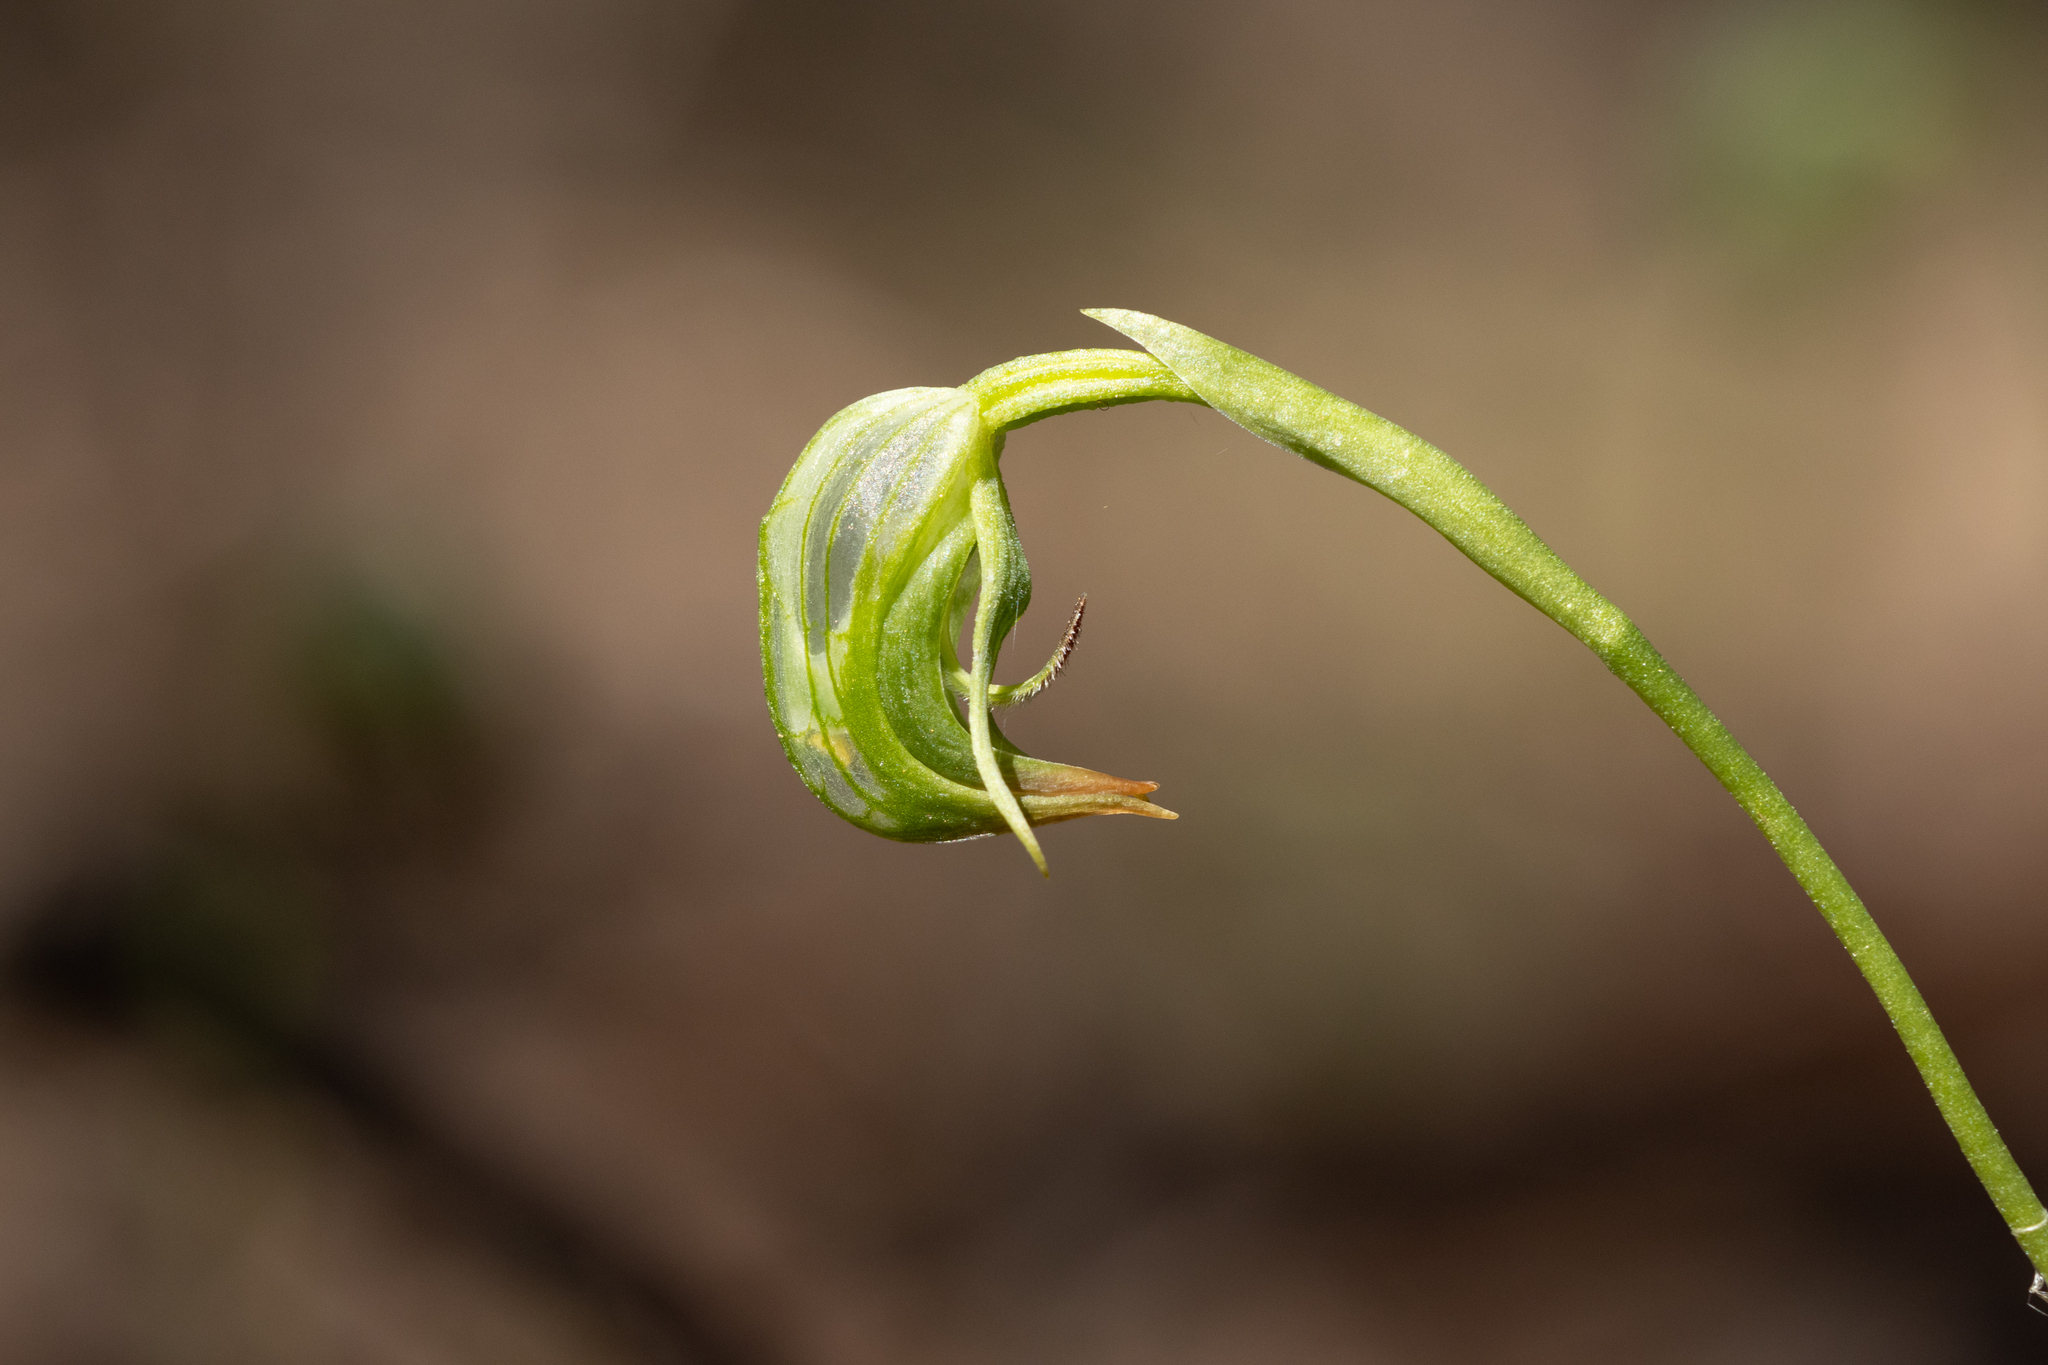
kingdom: Plantae
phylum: Tracheophyta
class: Liliopsida
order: Asparagales
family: Orchidaceae
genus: Pterostylis
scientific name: Pterostylis nutans
